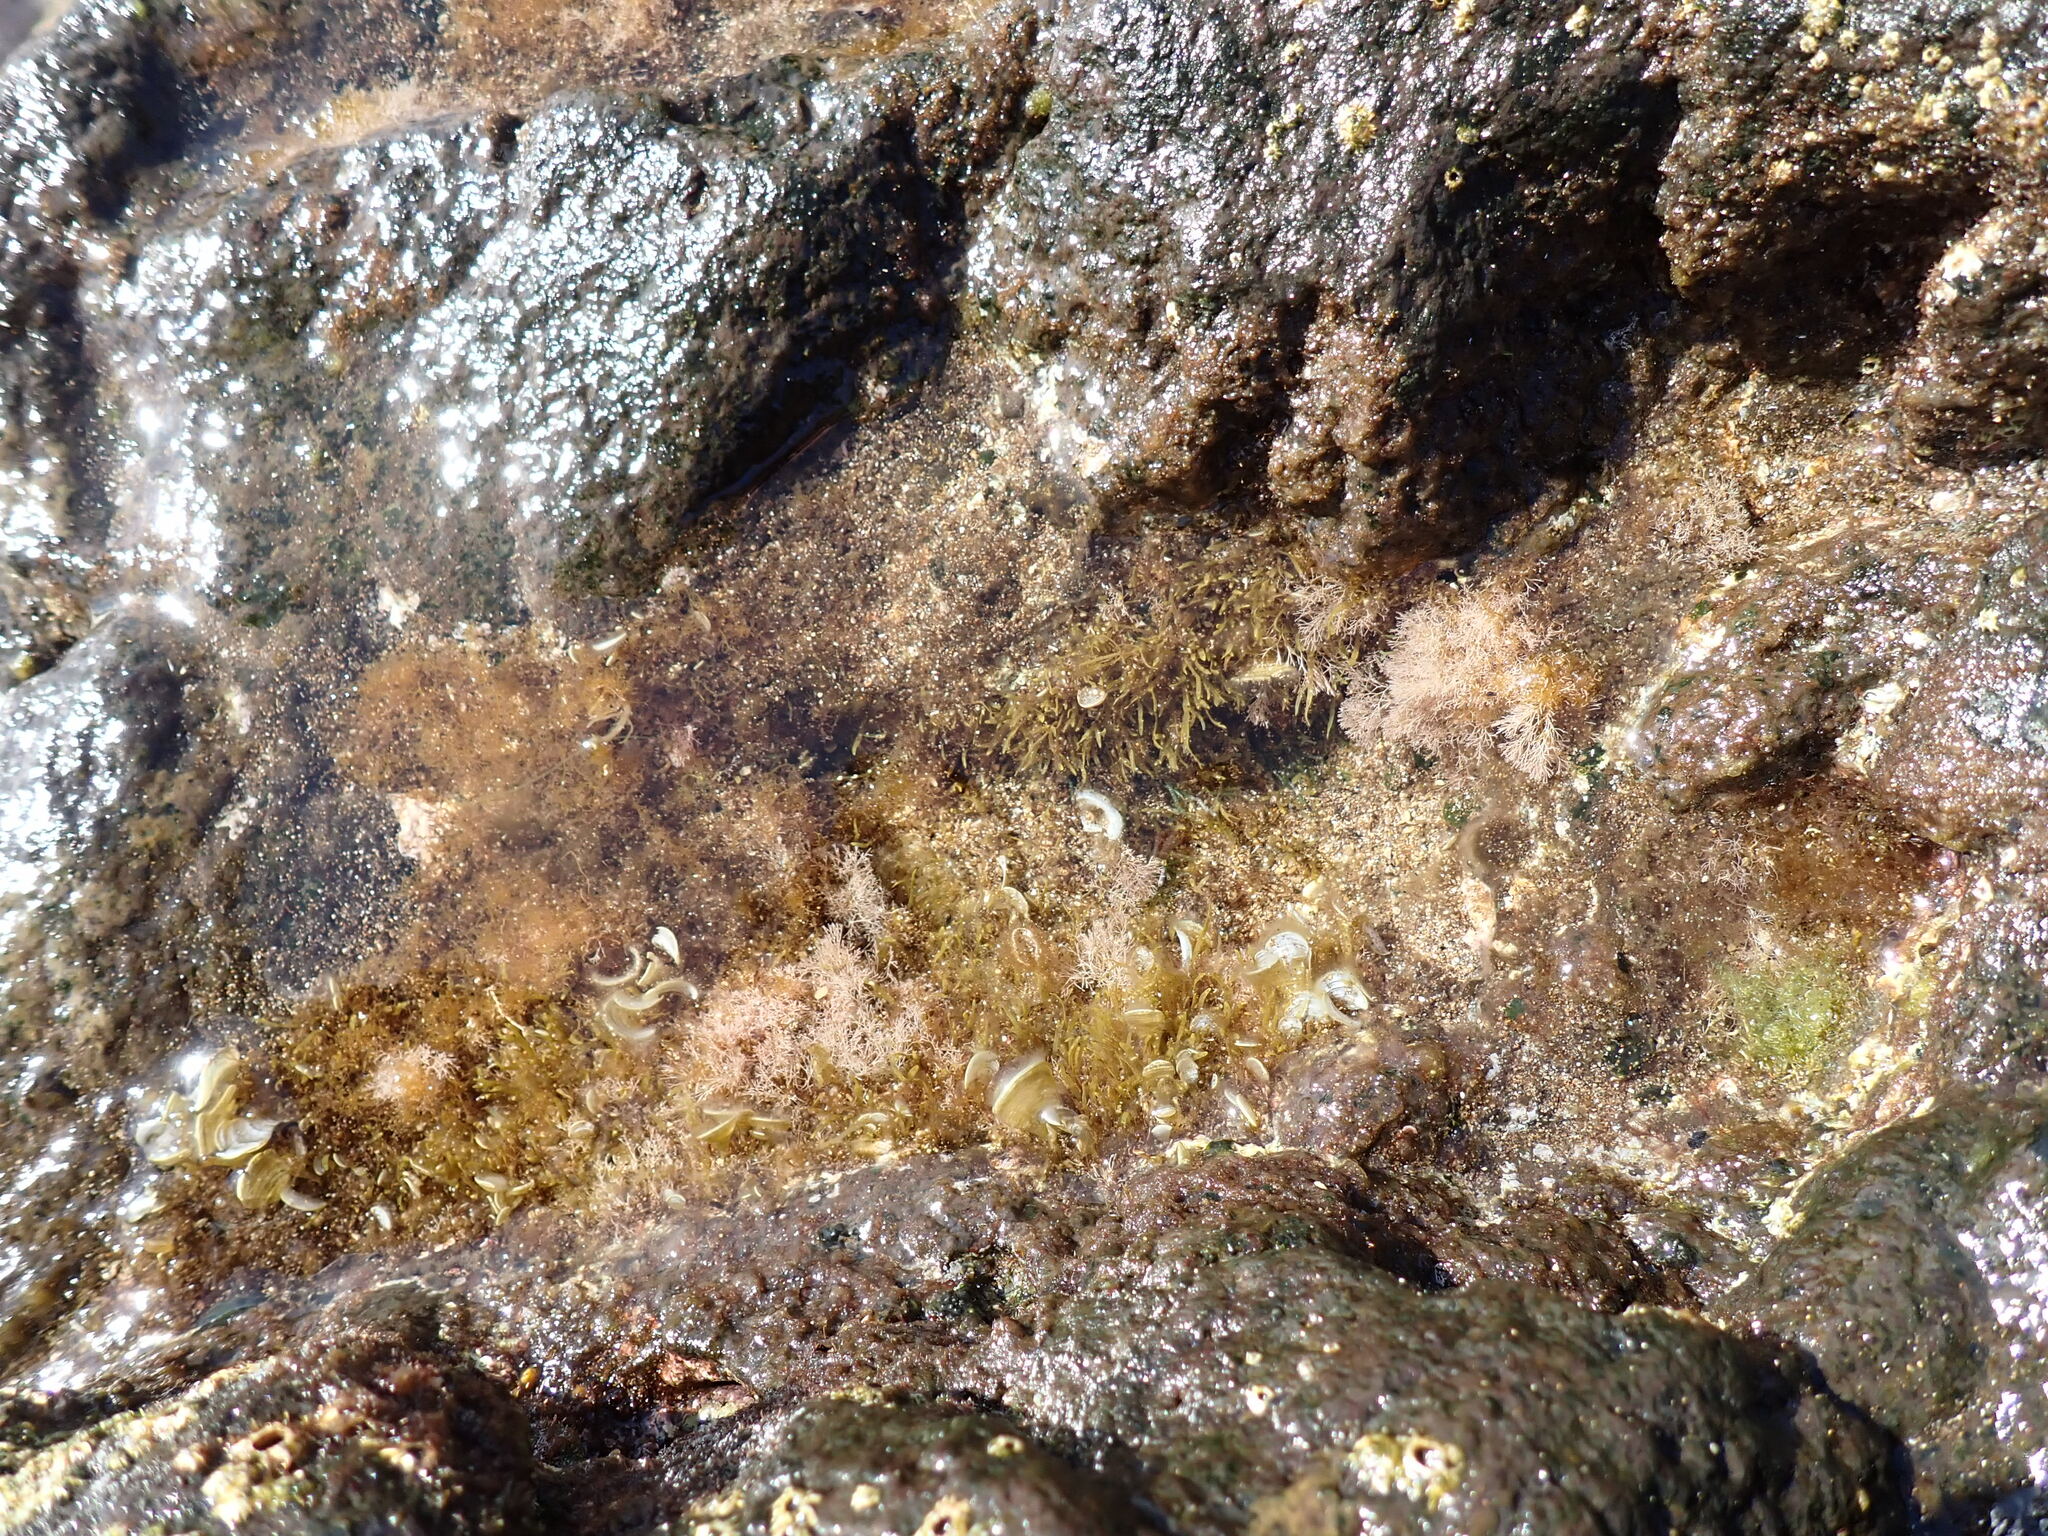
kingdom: Chromista
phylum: Ochrophyta
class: Phaeophyceae
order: Dictyotales
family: Dictyotaceae
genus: Padina
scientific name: Padina pavonica
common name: Turkey feather alga
